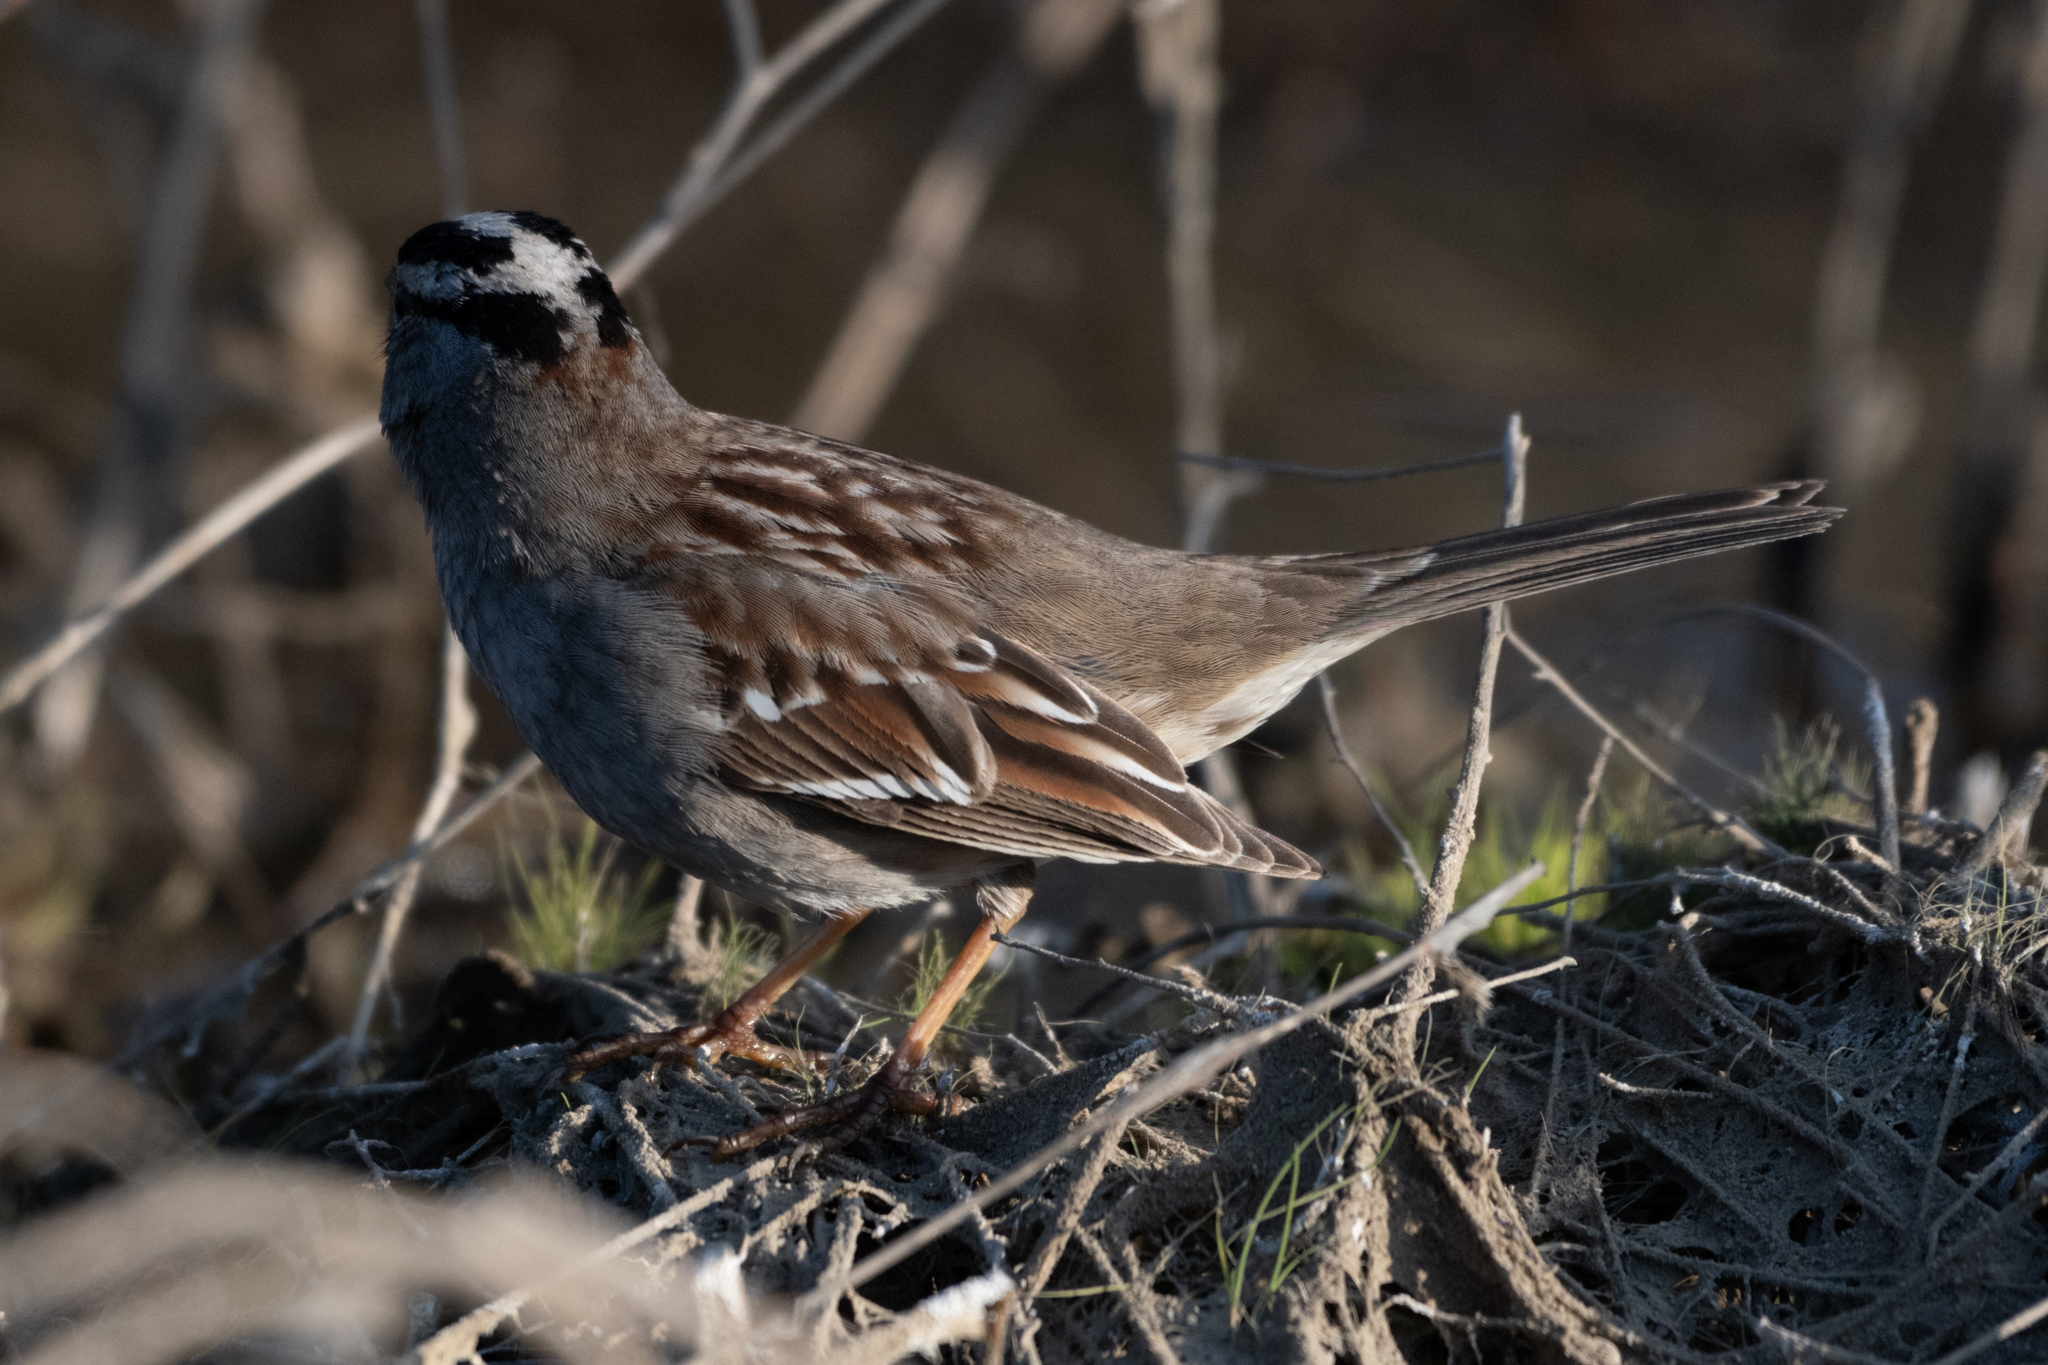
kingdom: Animalia
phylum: Chordata
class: Aves
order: Passeriformes
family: Passerellidae
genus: Zonotrichia
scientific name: Zonotrichia leucophrys
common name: White-crowned sparrow
